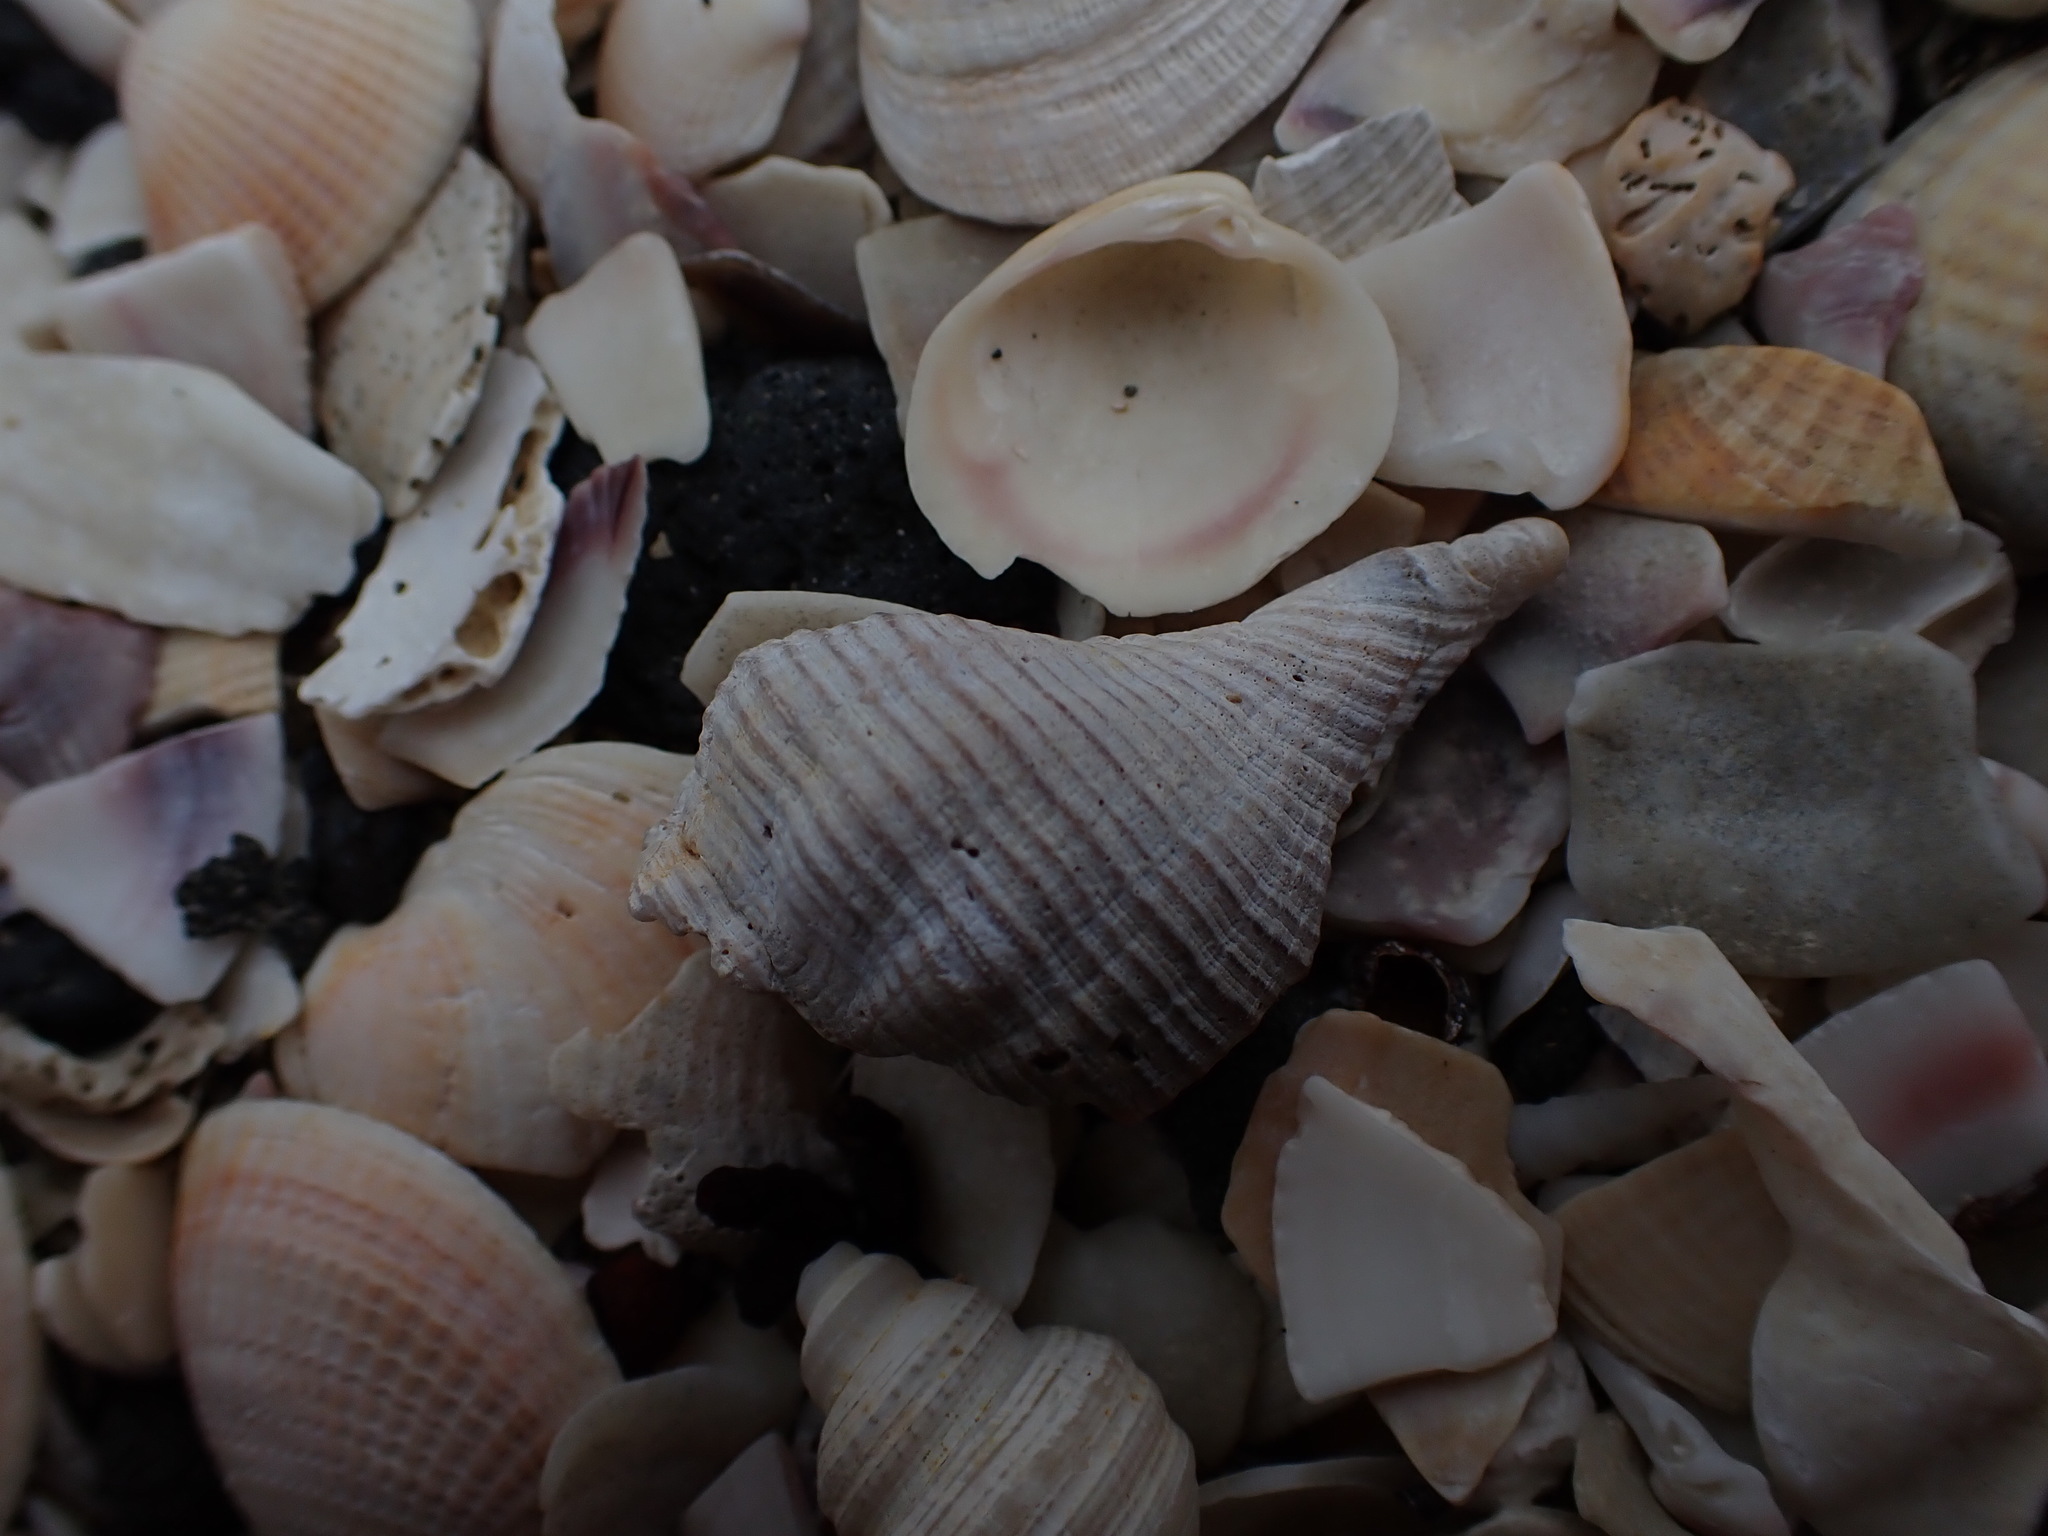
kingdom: Animalia
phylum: Mollusca
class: Gastropoda
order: Neogastropoda
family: Austrosiphonidae
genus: Penion
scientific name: Penion sulcatus
